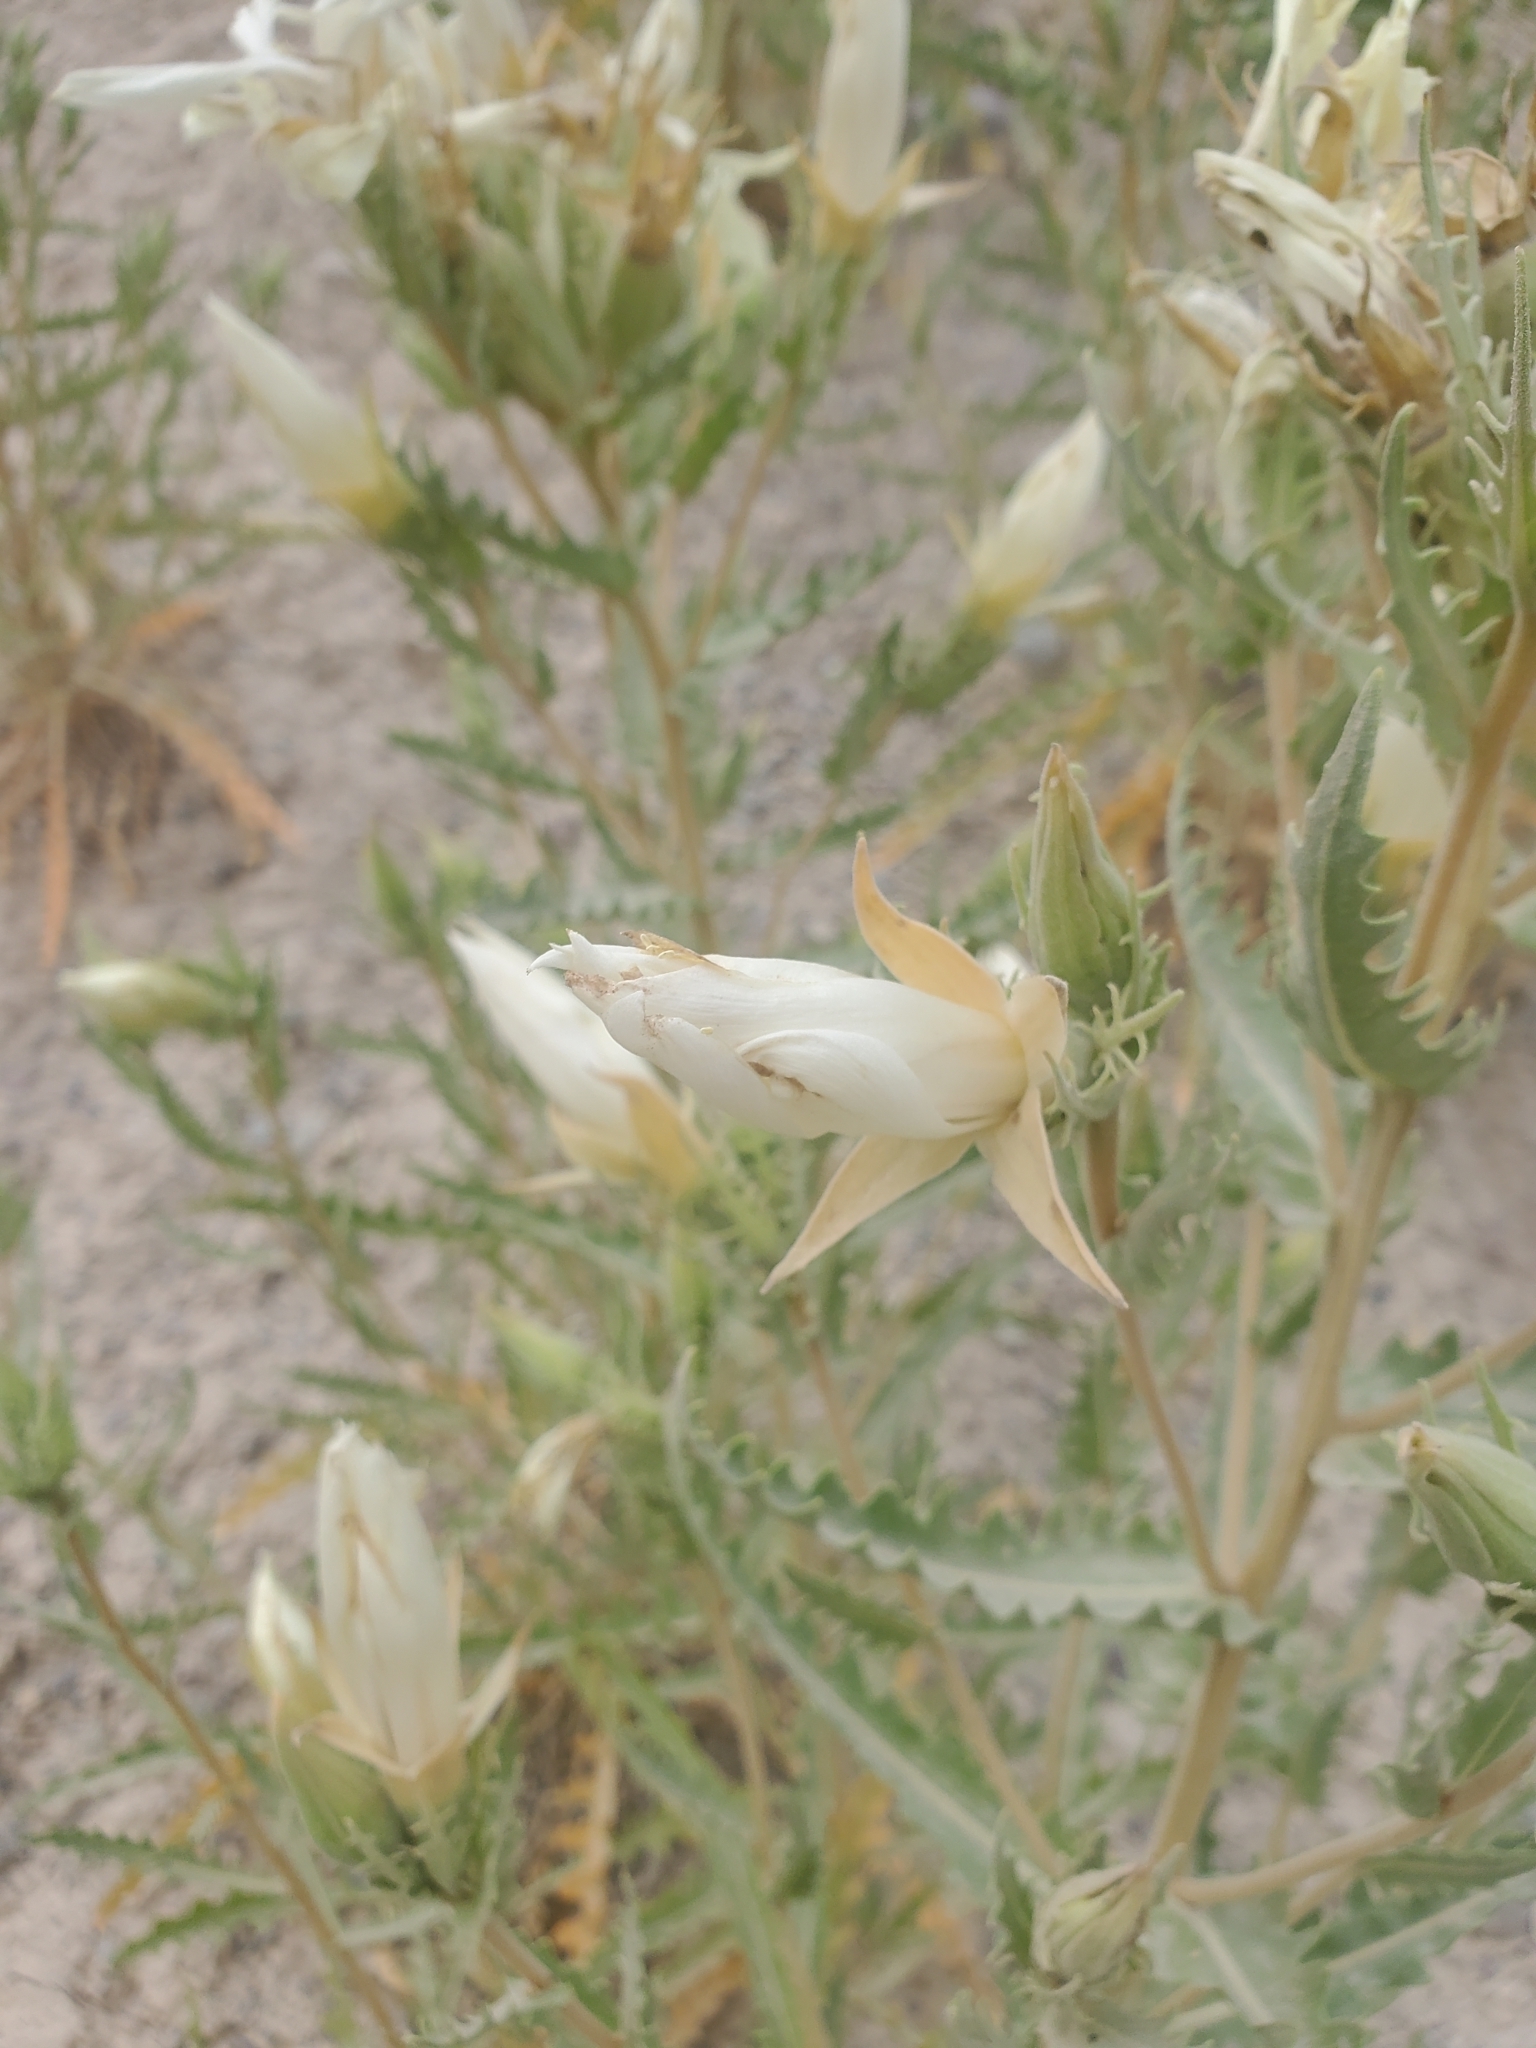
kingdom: Plantae
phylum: Tracheophyta
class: Magnoliopsida
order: Cornales
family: Loasaceae
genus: Mentzelia
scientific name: Mentzelia decapetala
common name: Gumbo-lily
